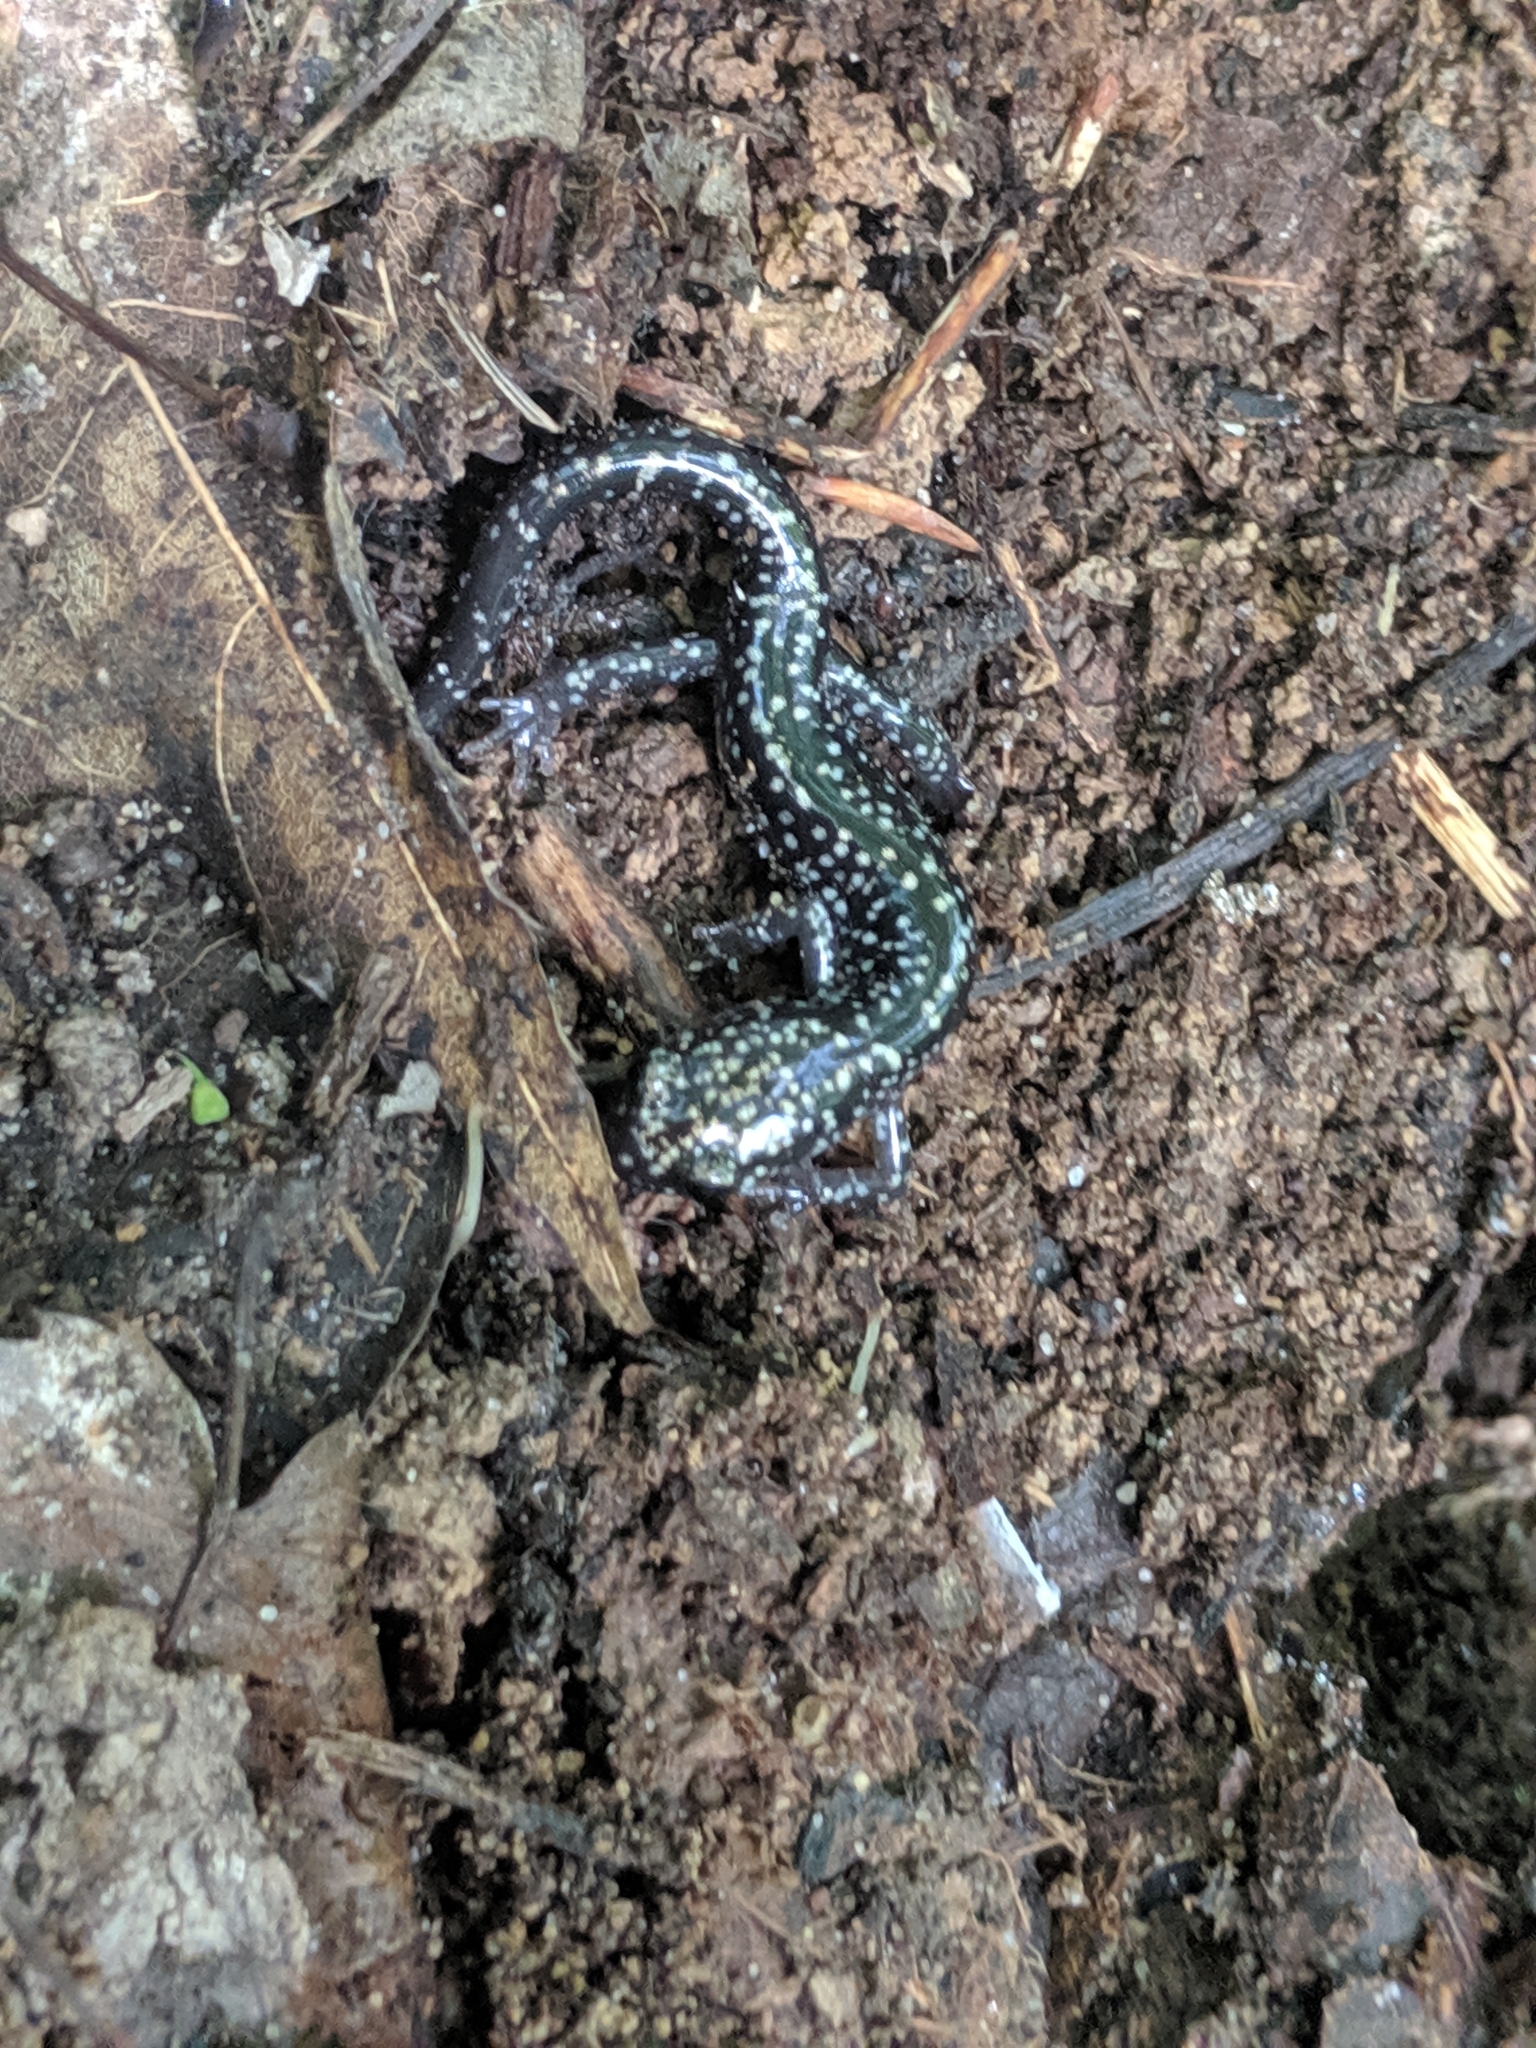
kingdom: Animalia
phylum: Chordata
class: Amphibia
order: Caudata
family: Plethodontidae
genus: Plethodon
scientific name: Plethodon glutinosus
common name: Northern slimy salamander
